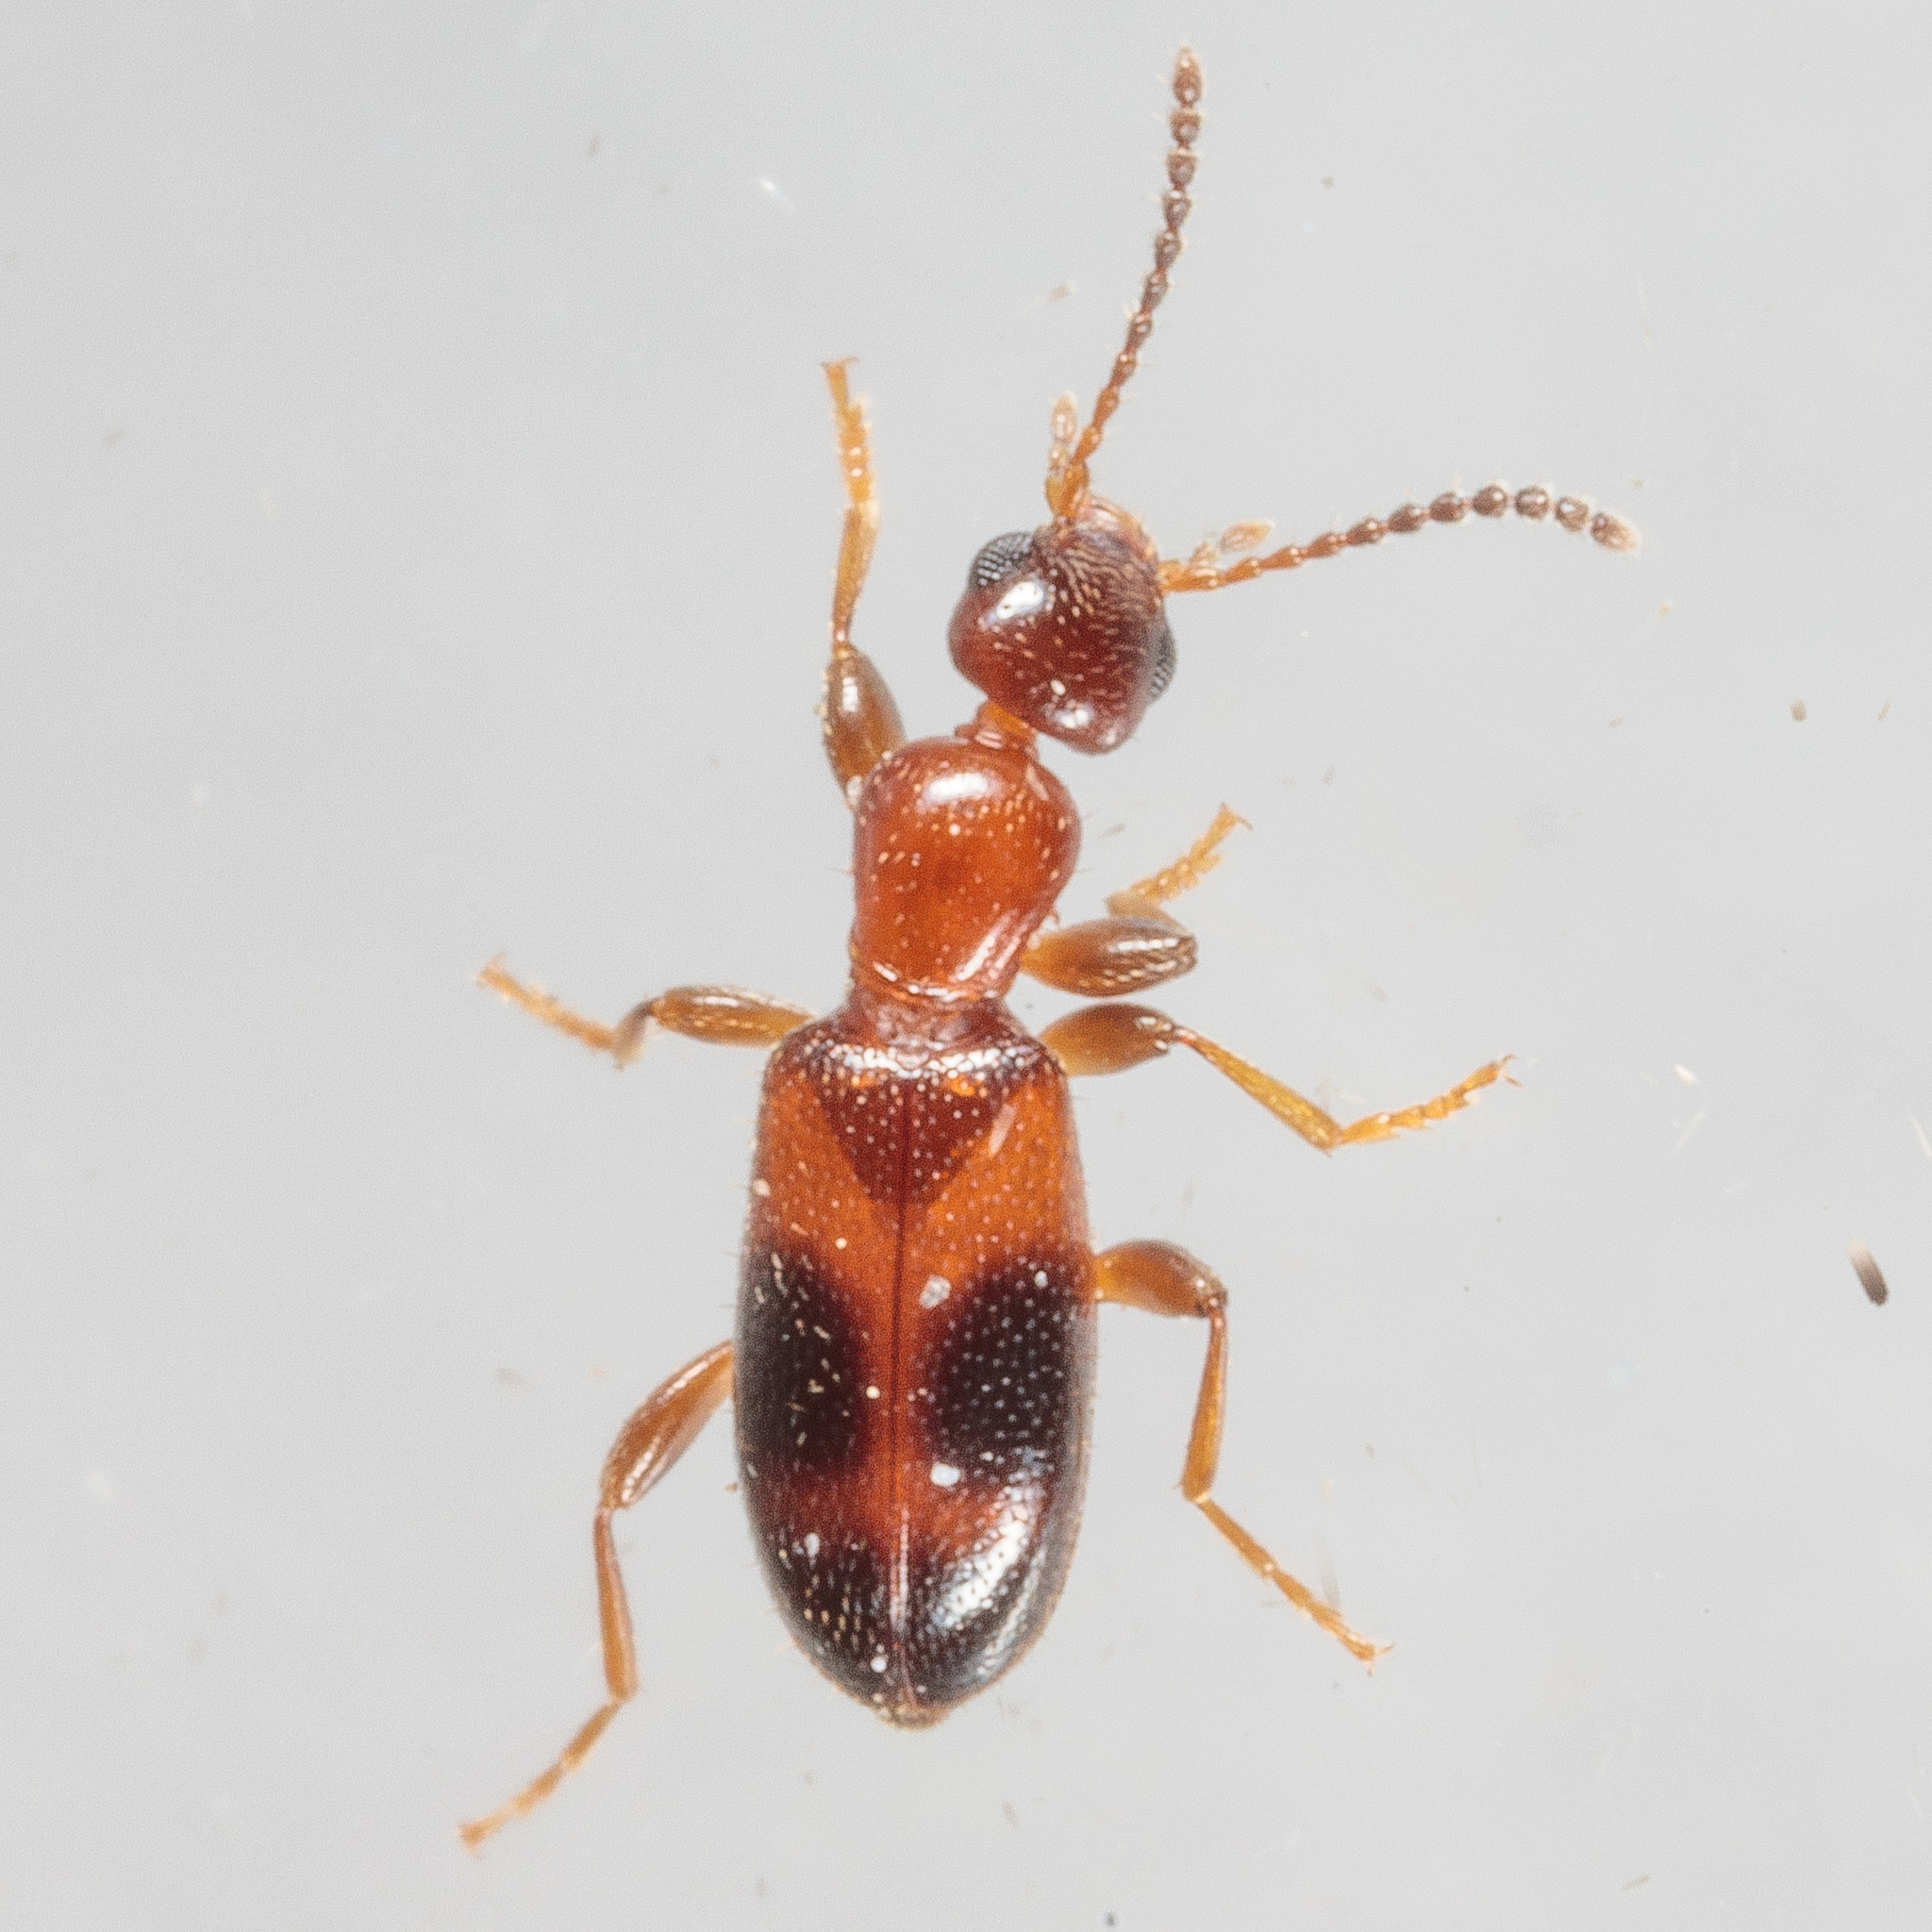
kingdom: Animalia
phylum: Arthropoda
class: Insecta
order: Coleoptera
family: Anthicidae
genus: Vacusus
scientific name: Vacusus vicinus
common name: Antlike flower beetle
